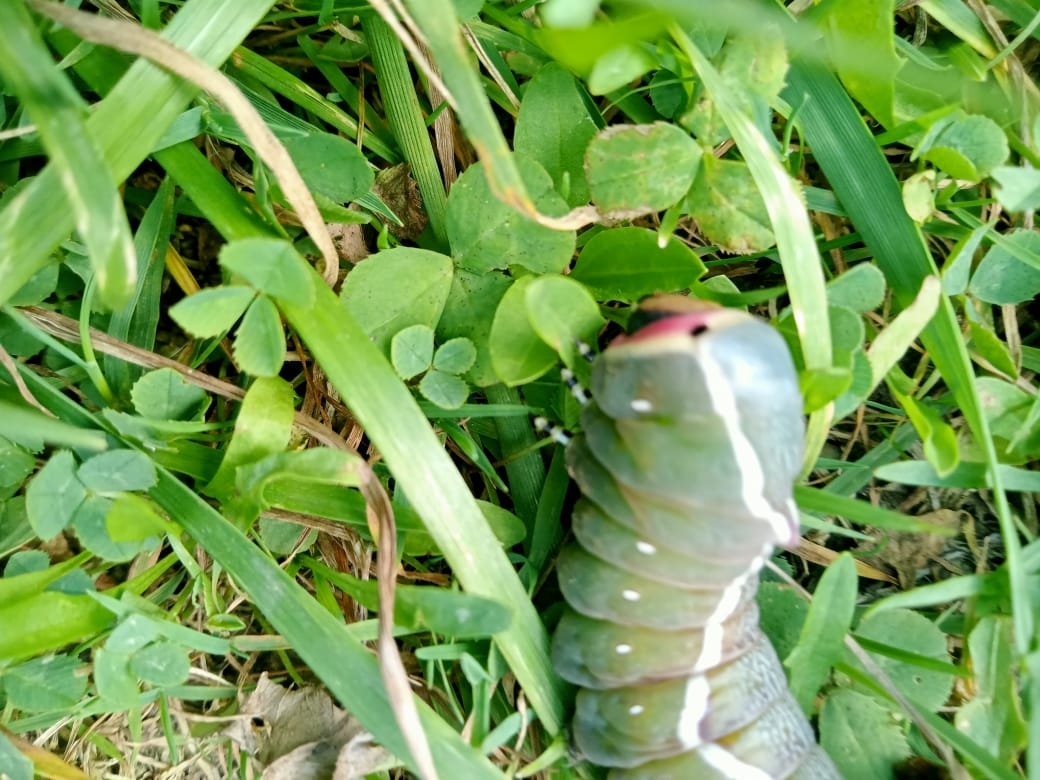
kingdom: Animalia
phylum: Arthropoda
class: Insecta
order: Lepidoptera
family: Notodontidae
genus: Cerura
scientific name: Cerura vinula
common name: Puss moth
